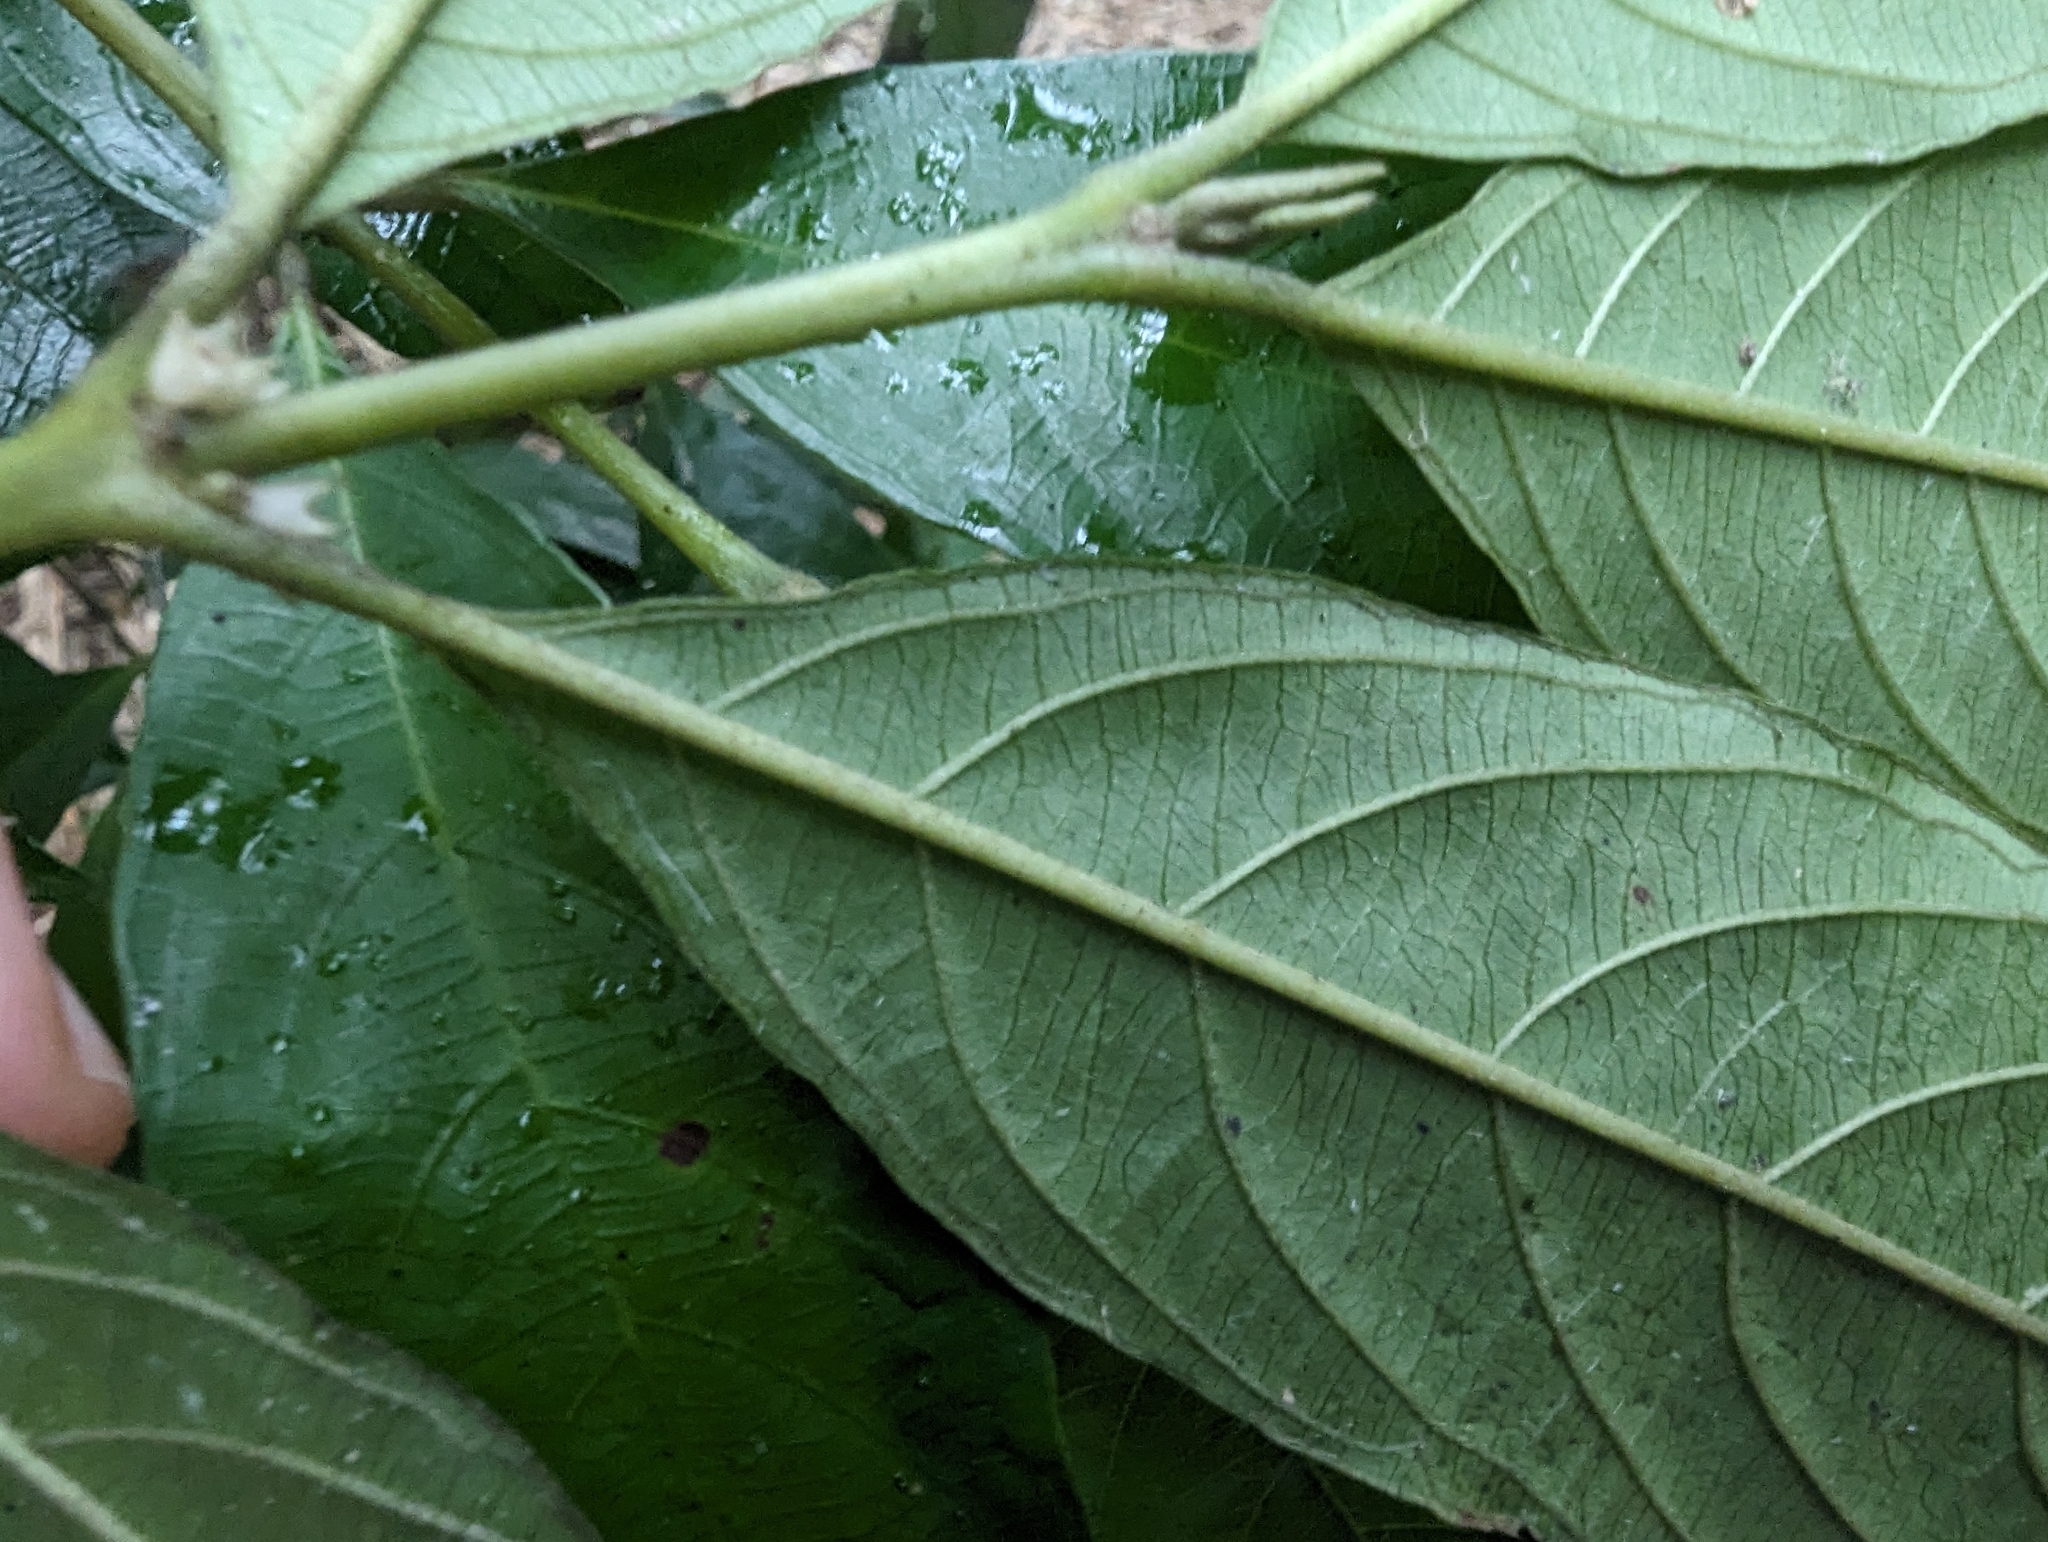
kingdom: Plantae
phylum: Tracheophyta
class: Magnoliopsida
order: Gentianales
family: Rubiaceae
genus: Lasianthus
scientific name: Lasianthus fordii
